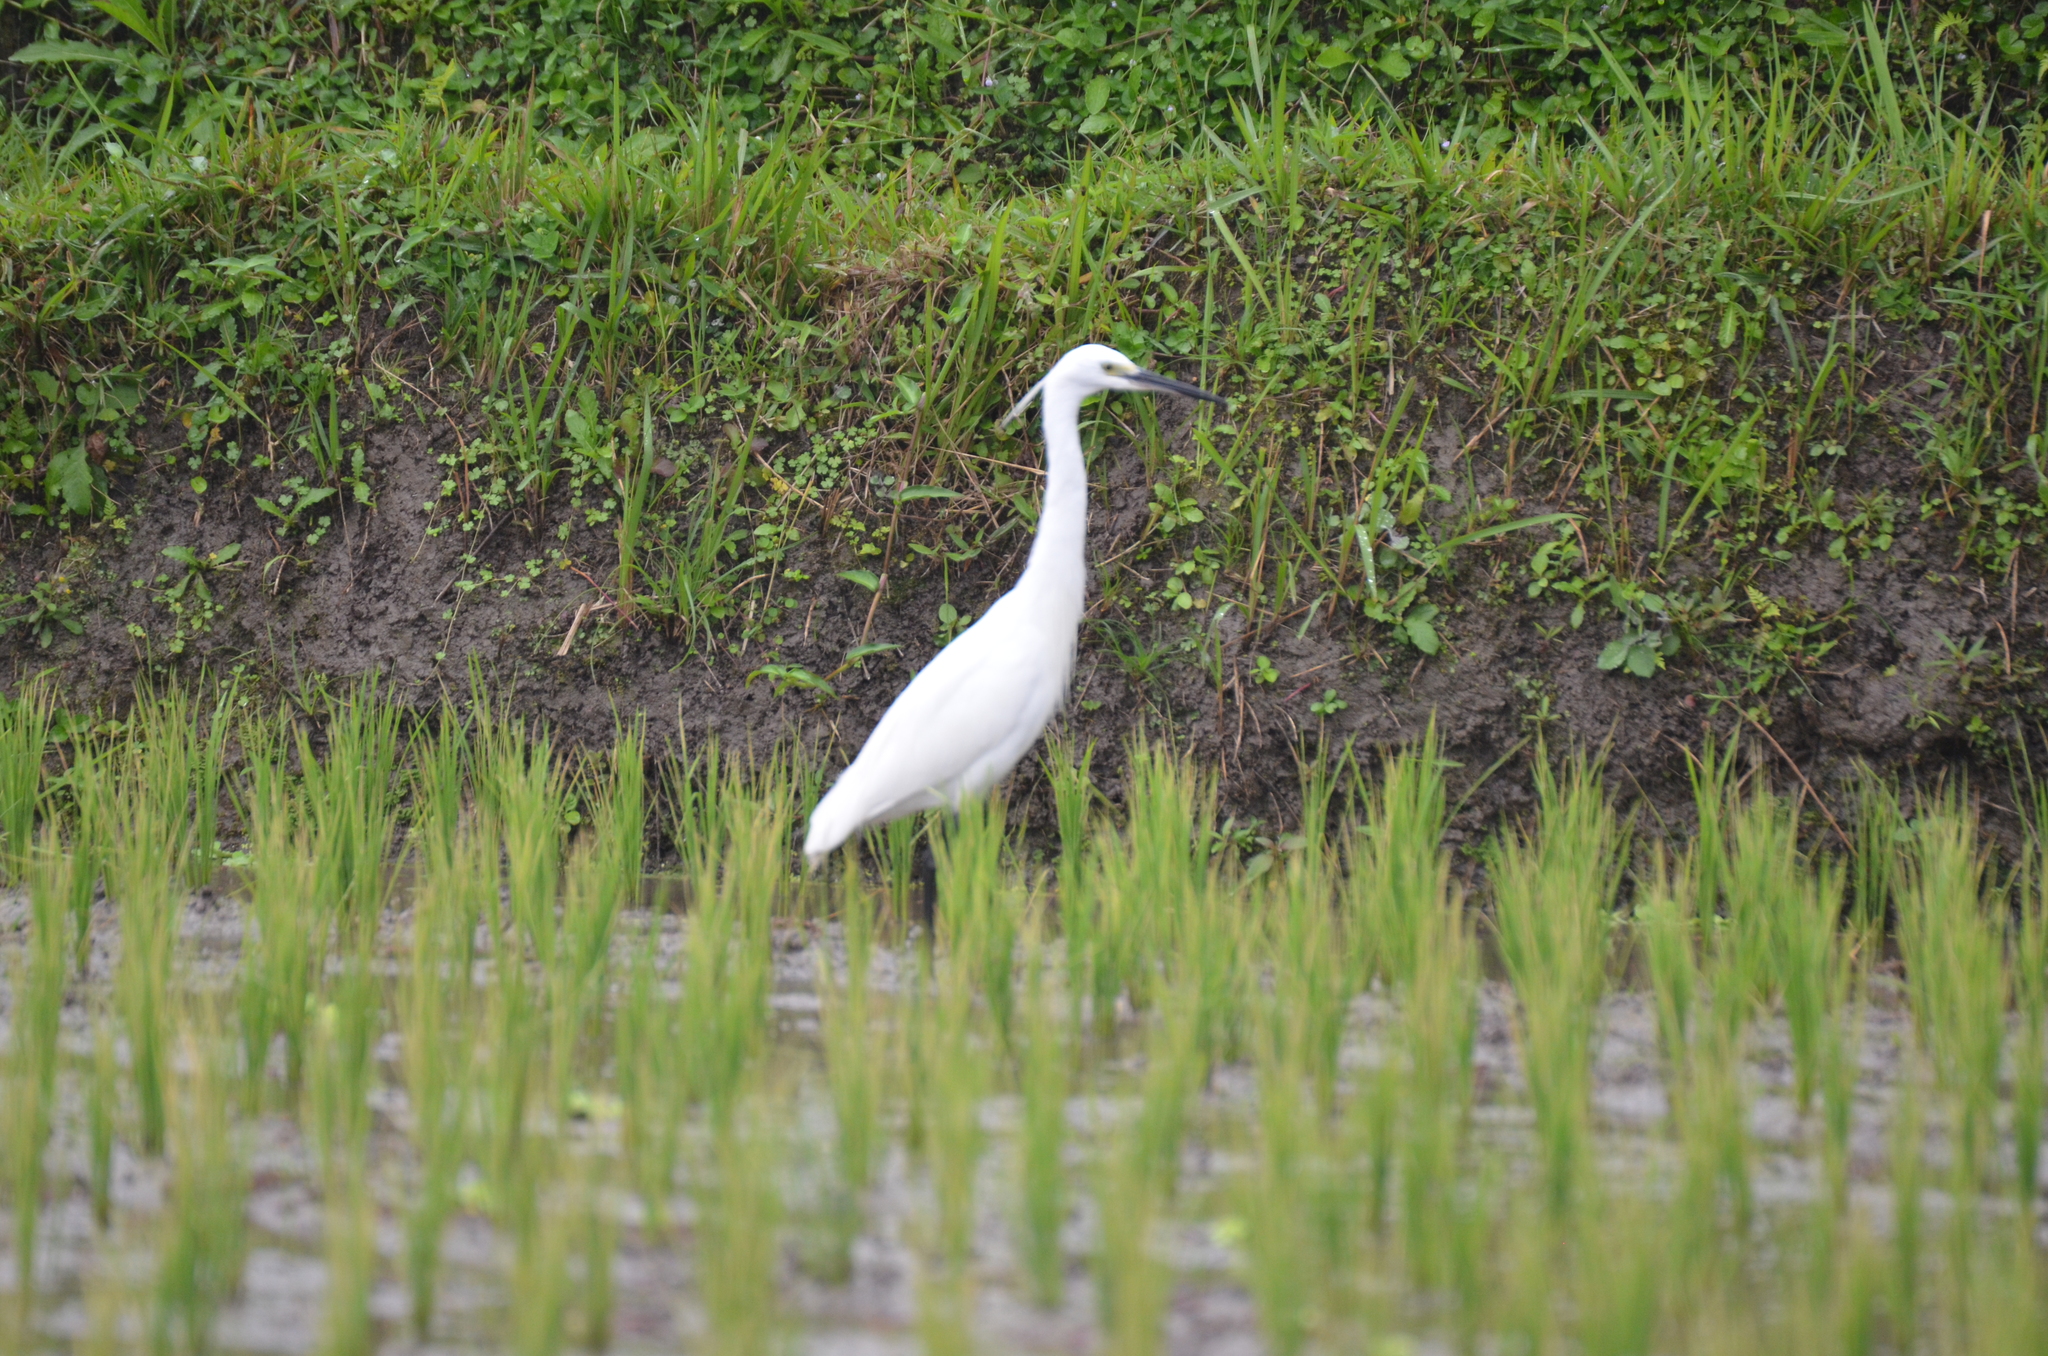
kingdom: Animalia
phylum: Chordata
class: Aves
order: Pelecaniformes
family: Ardeidae
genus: Egretta
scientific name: Egretta garzetta
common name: Little egret
